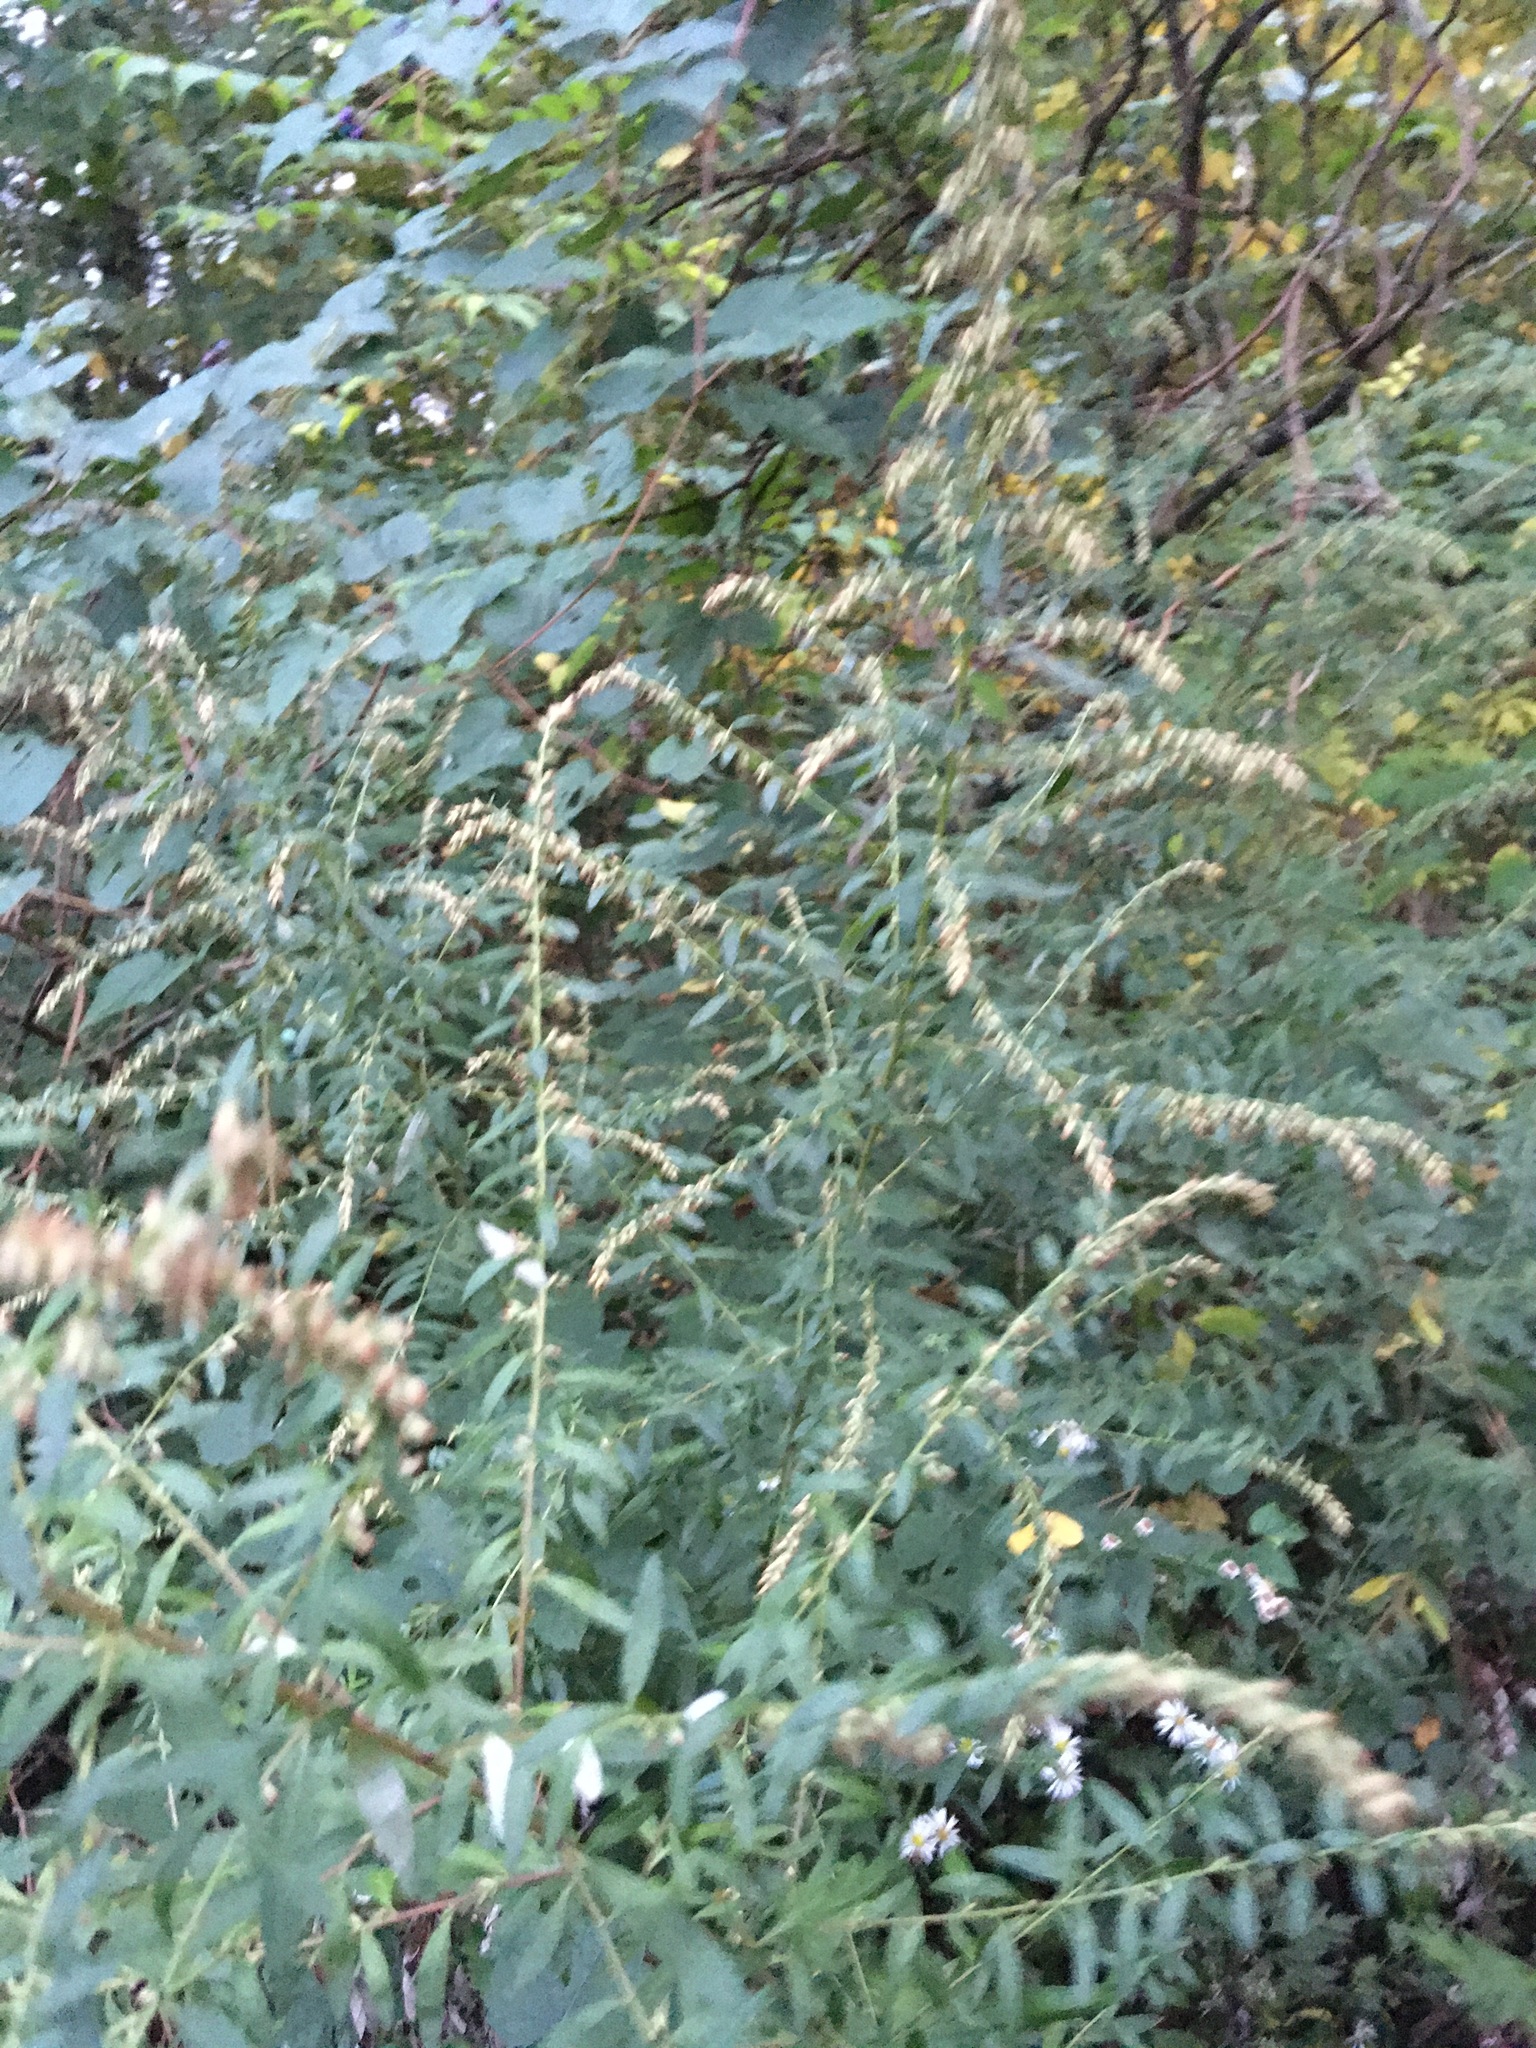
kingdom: Plantae
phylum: Tracheophyta
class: Magnoliopsida
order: Asterales
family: Asteraceae
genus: Artemisia
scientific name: Artemisia vulgaris
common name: Mugwort
